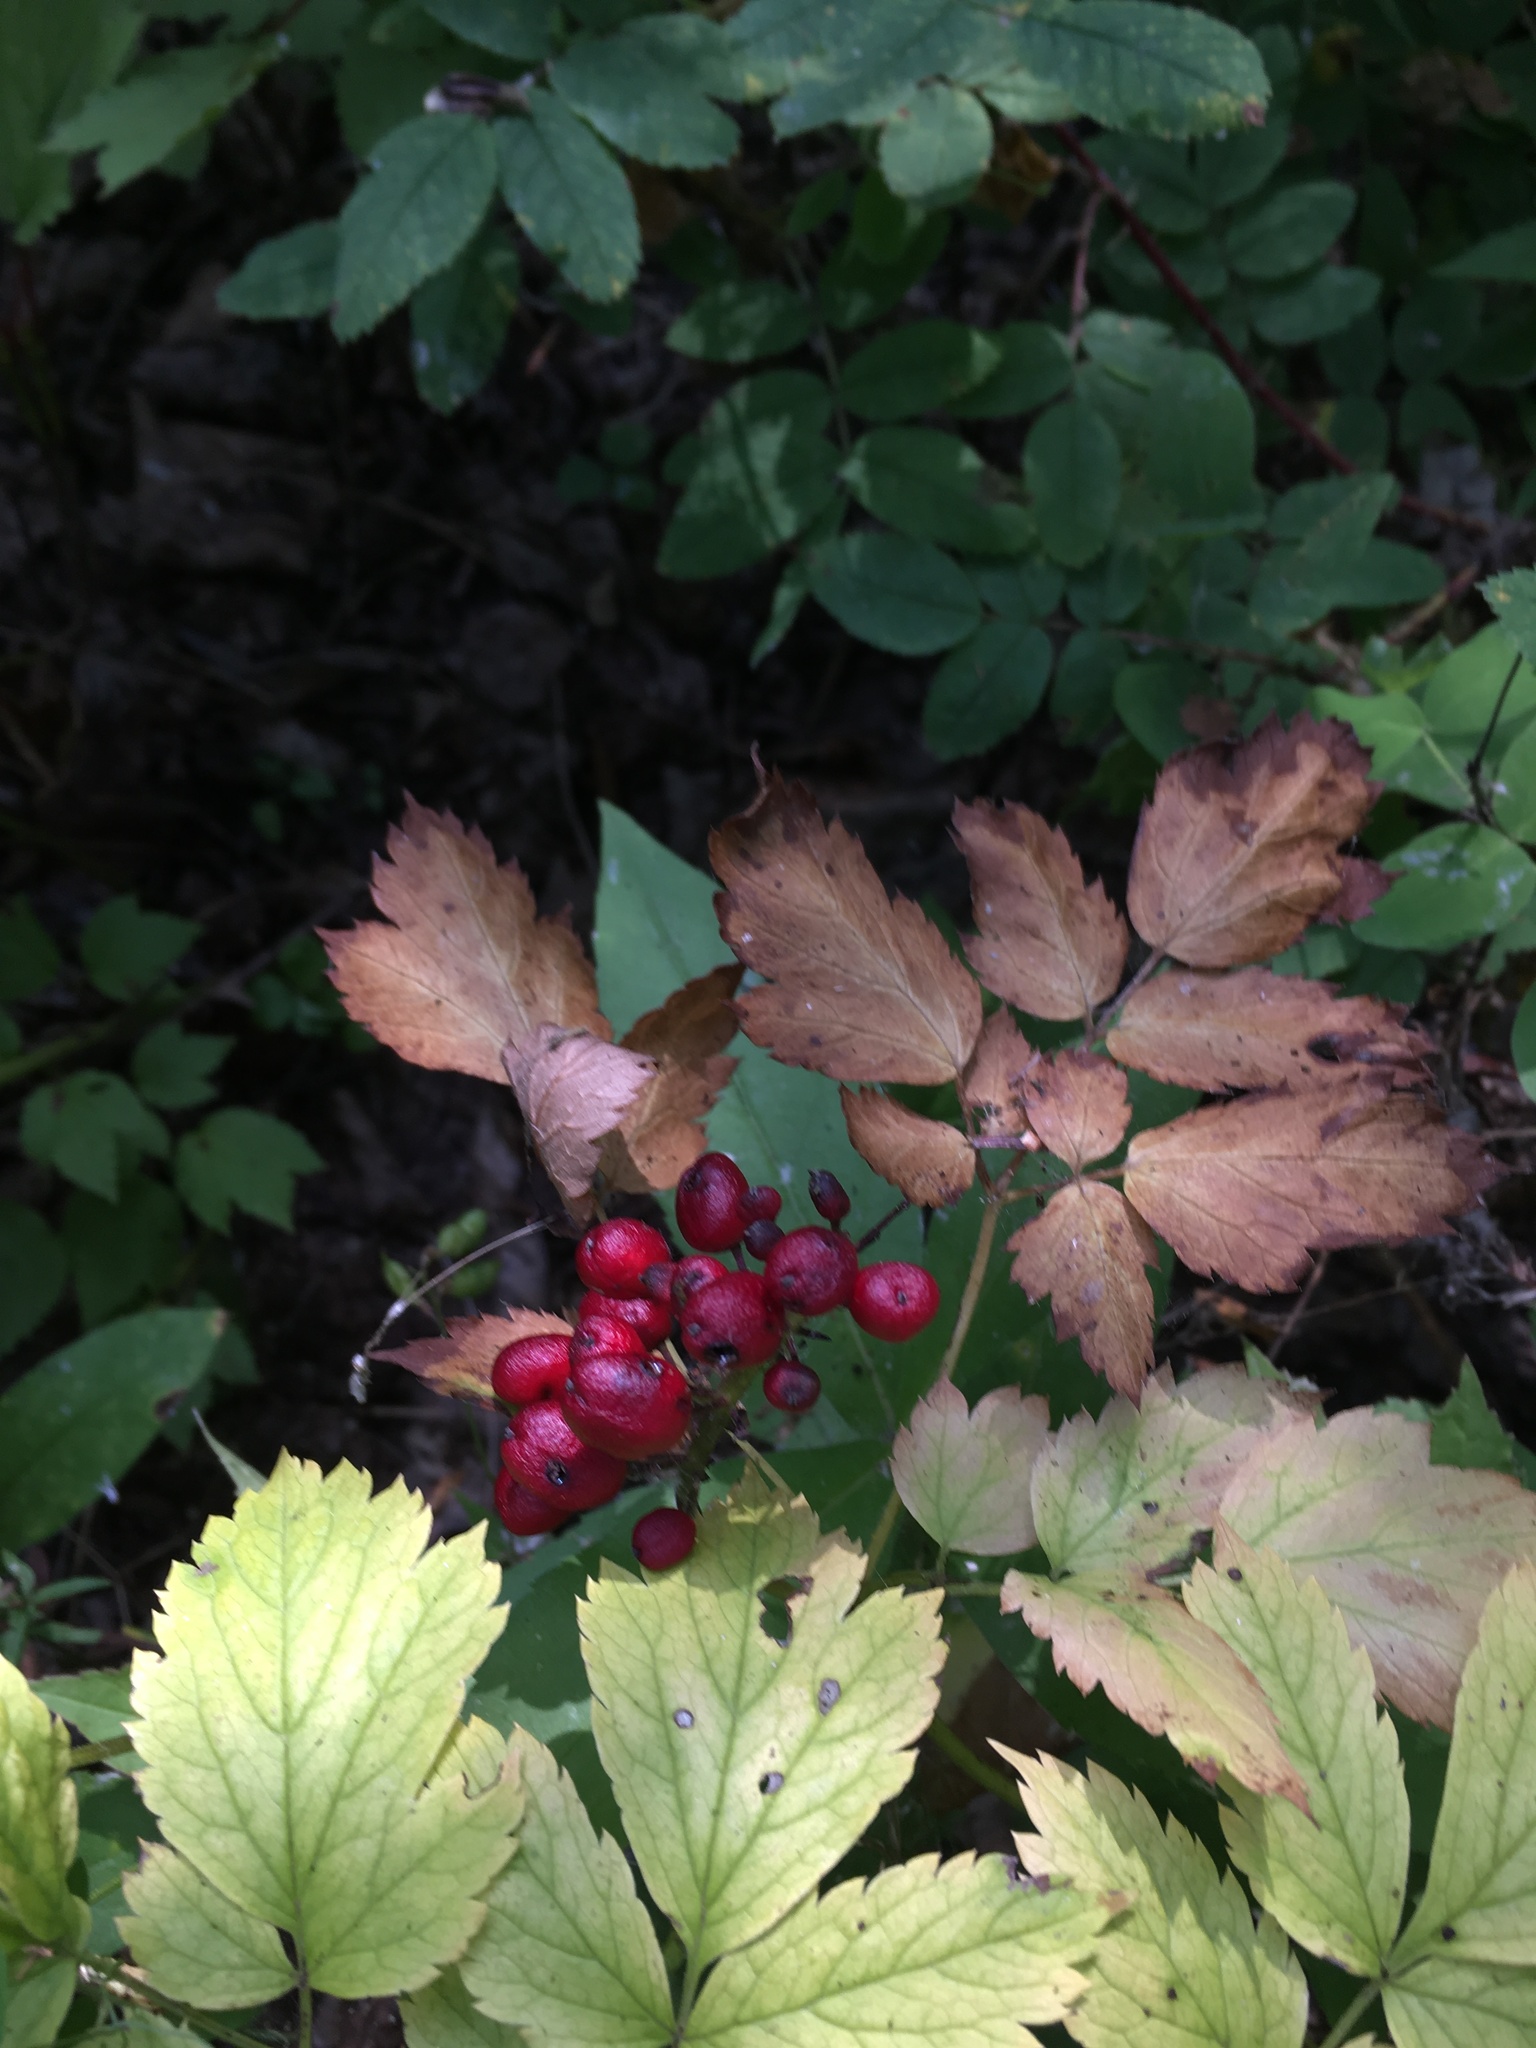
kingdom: Plantae
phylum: Tracheophyta
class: Magnoliopsida
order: Ranunculales
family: Ranunculaceae
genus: Actaea
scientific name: Actaea rubra
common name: Red baneberry
